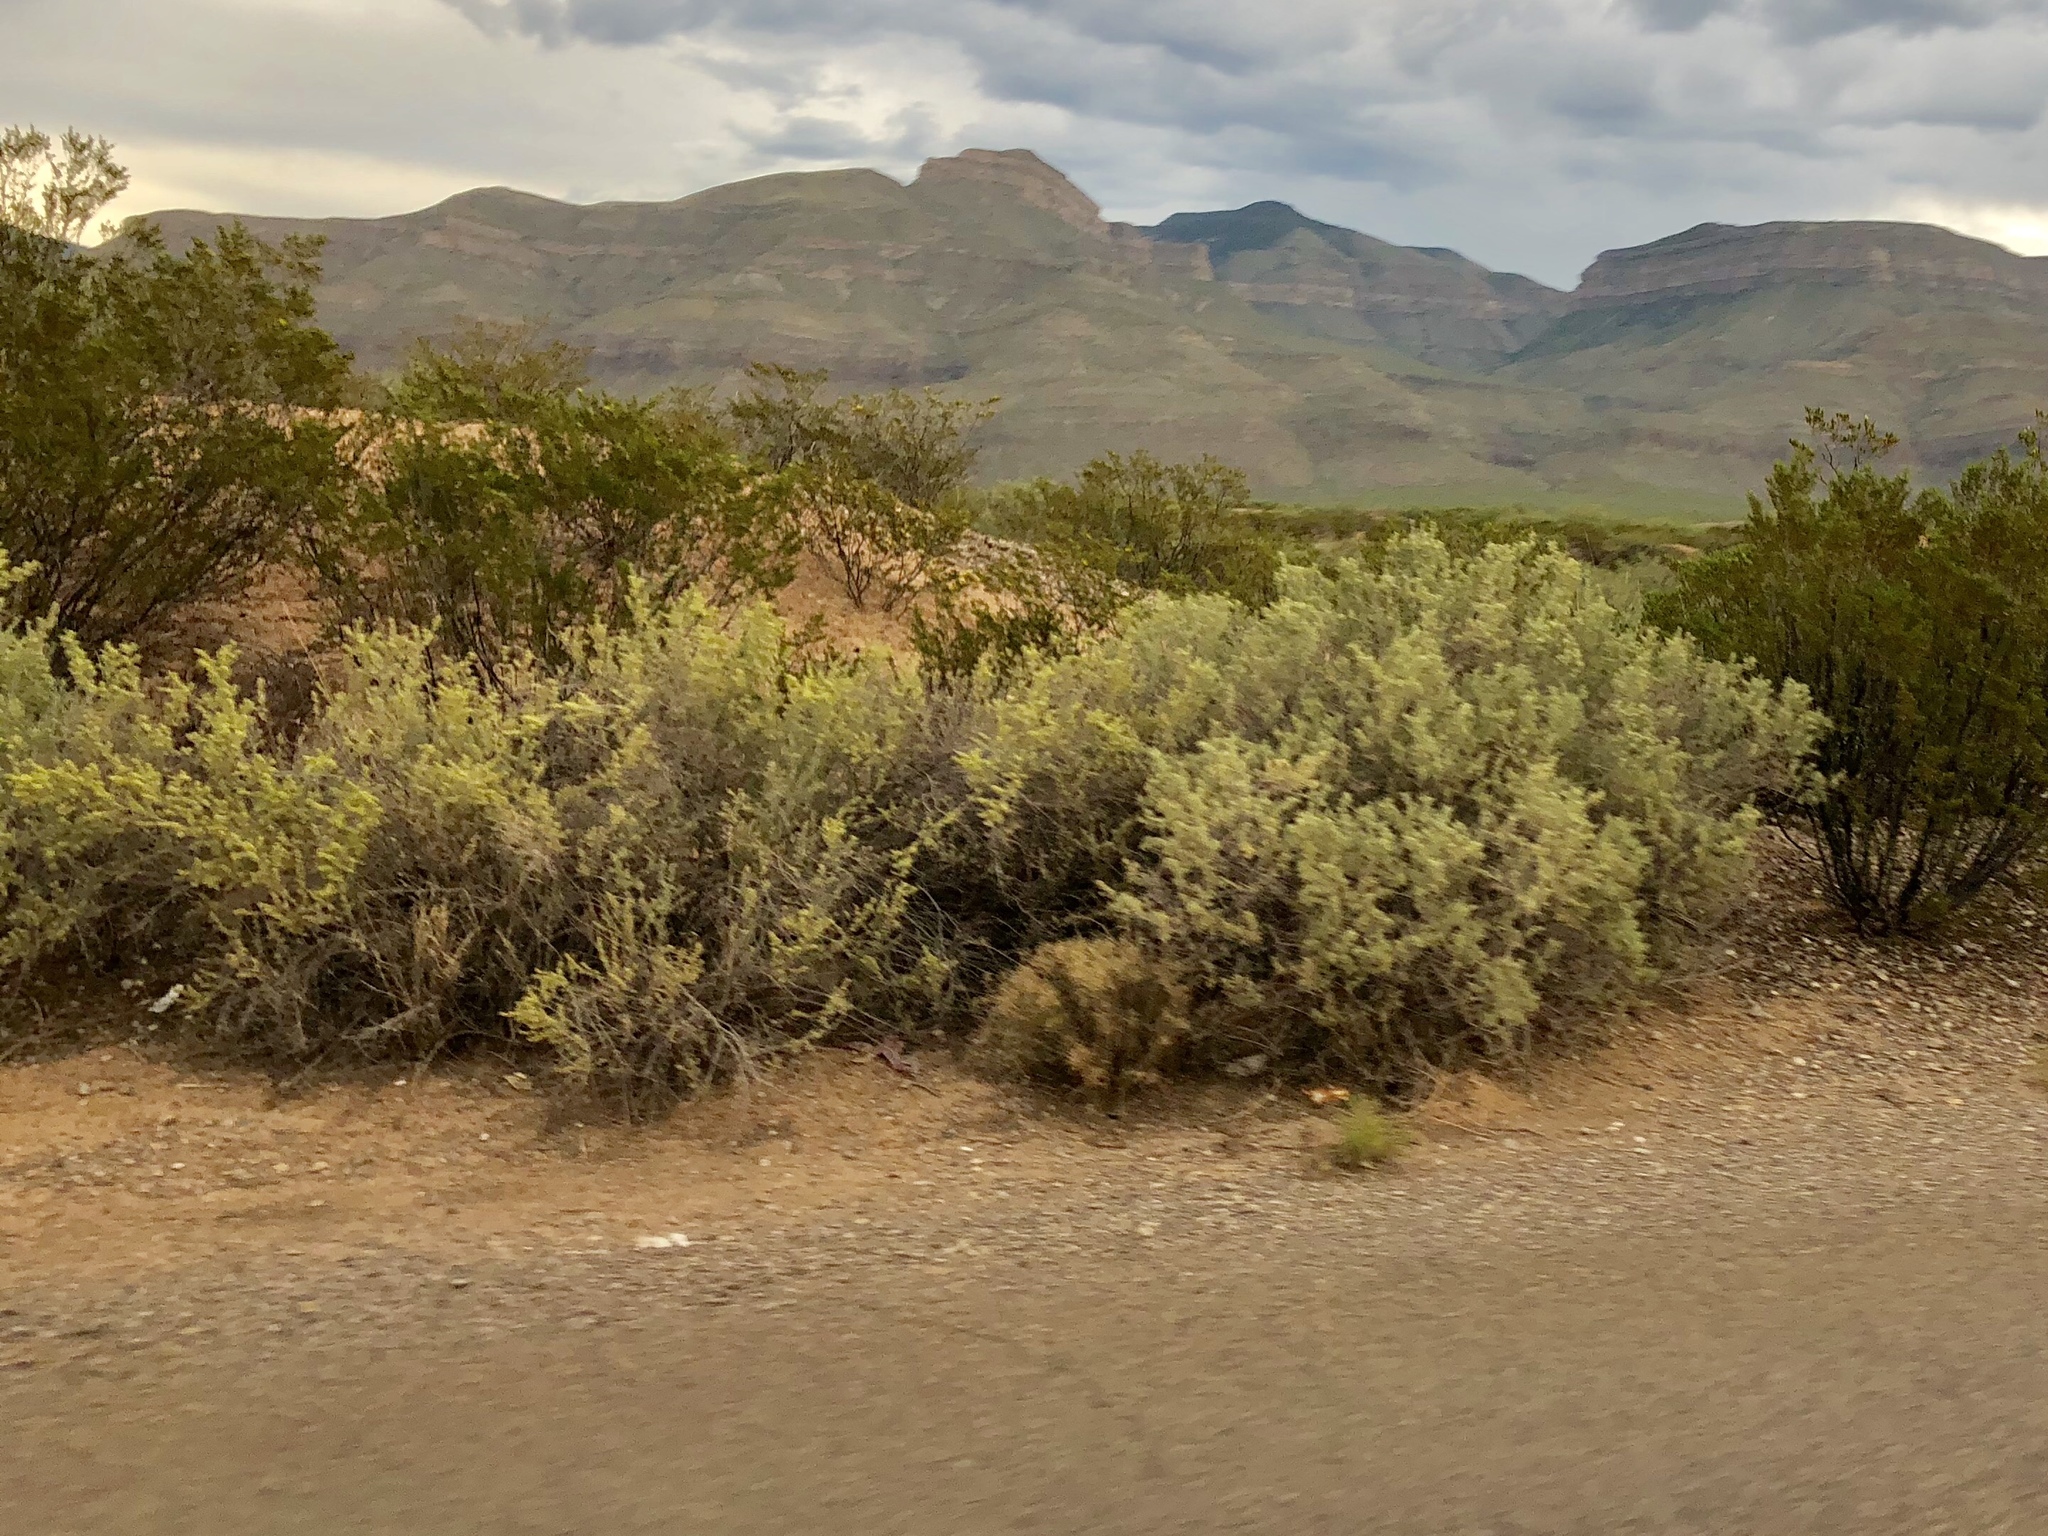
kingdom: Plantae
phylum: Tracheophyta
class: Magnoliopsida
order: Caryophyllales
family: Amaranthaceae
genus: Atriplex
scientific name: Atriplex canescens
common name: Four-wing saltbush
